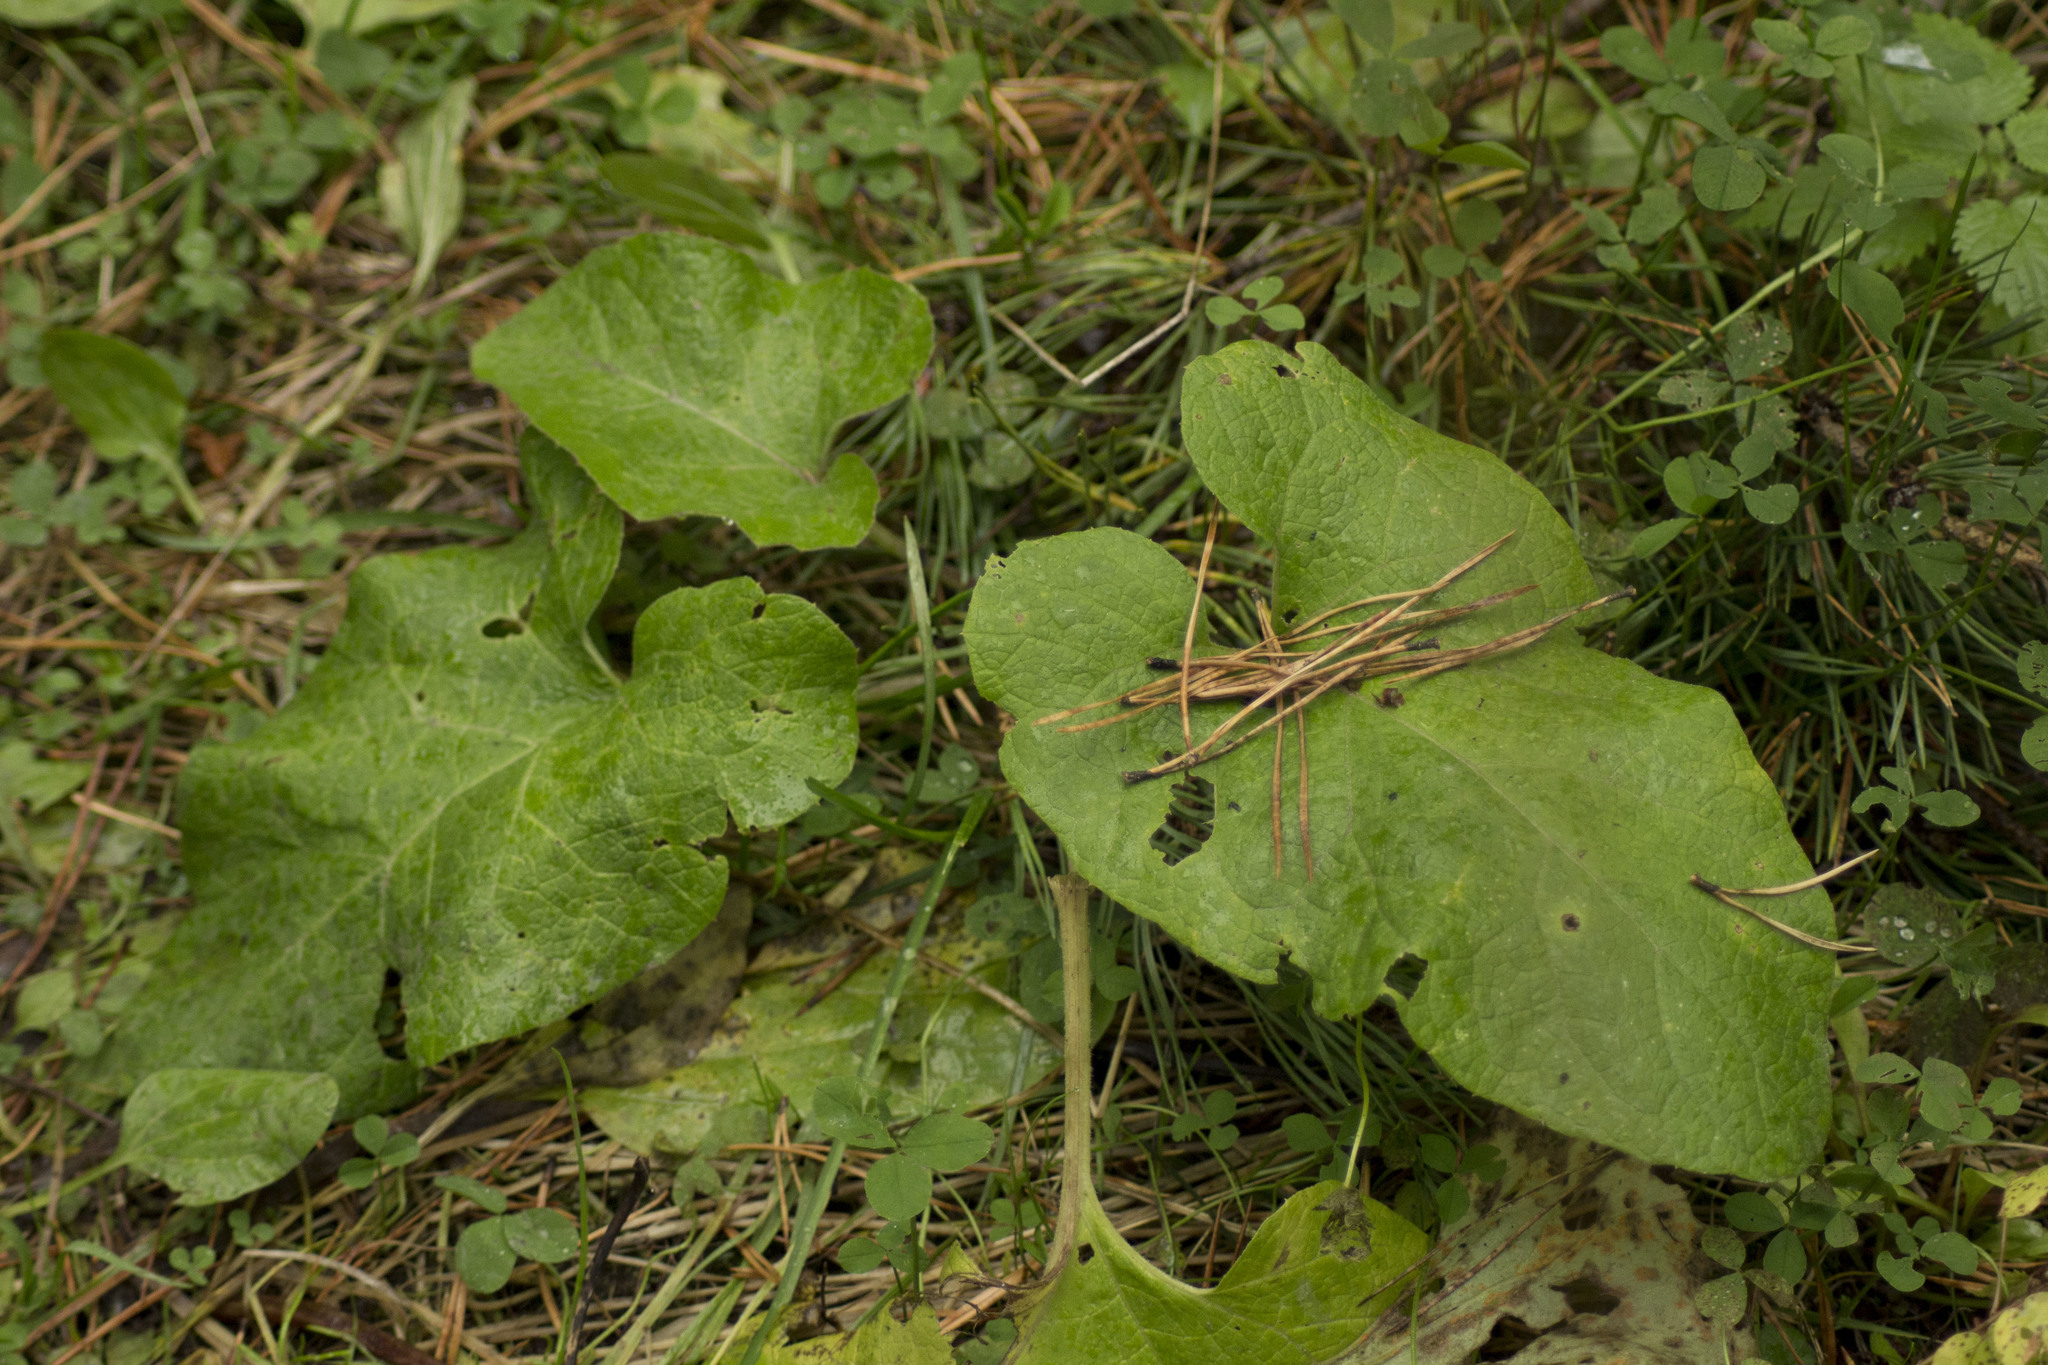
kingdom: Plantae
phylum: Tracheophyta
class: Magnoliopsida
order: Asterales
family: Asteraceae
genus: Arctium
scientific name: Arctium tomentosum
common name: Woolly burdock
